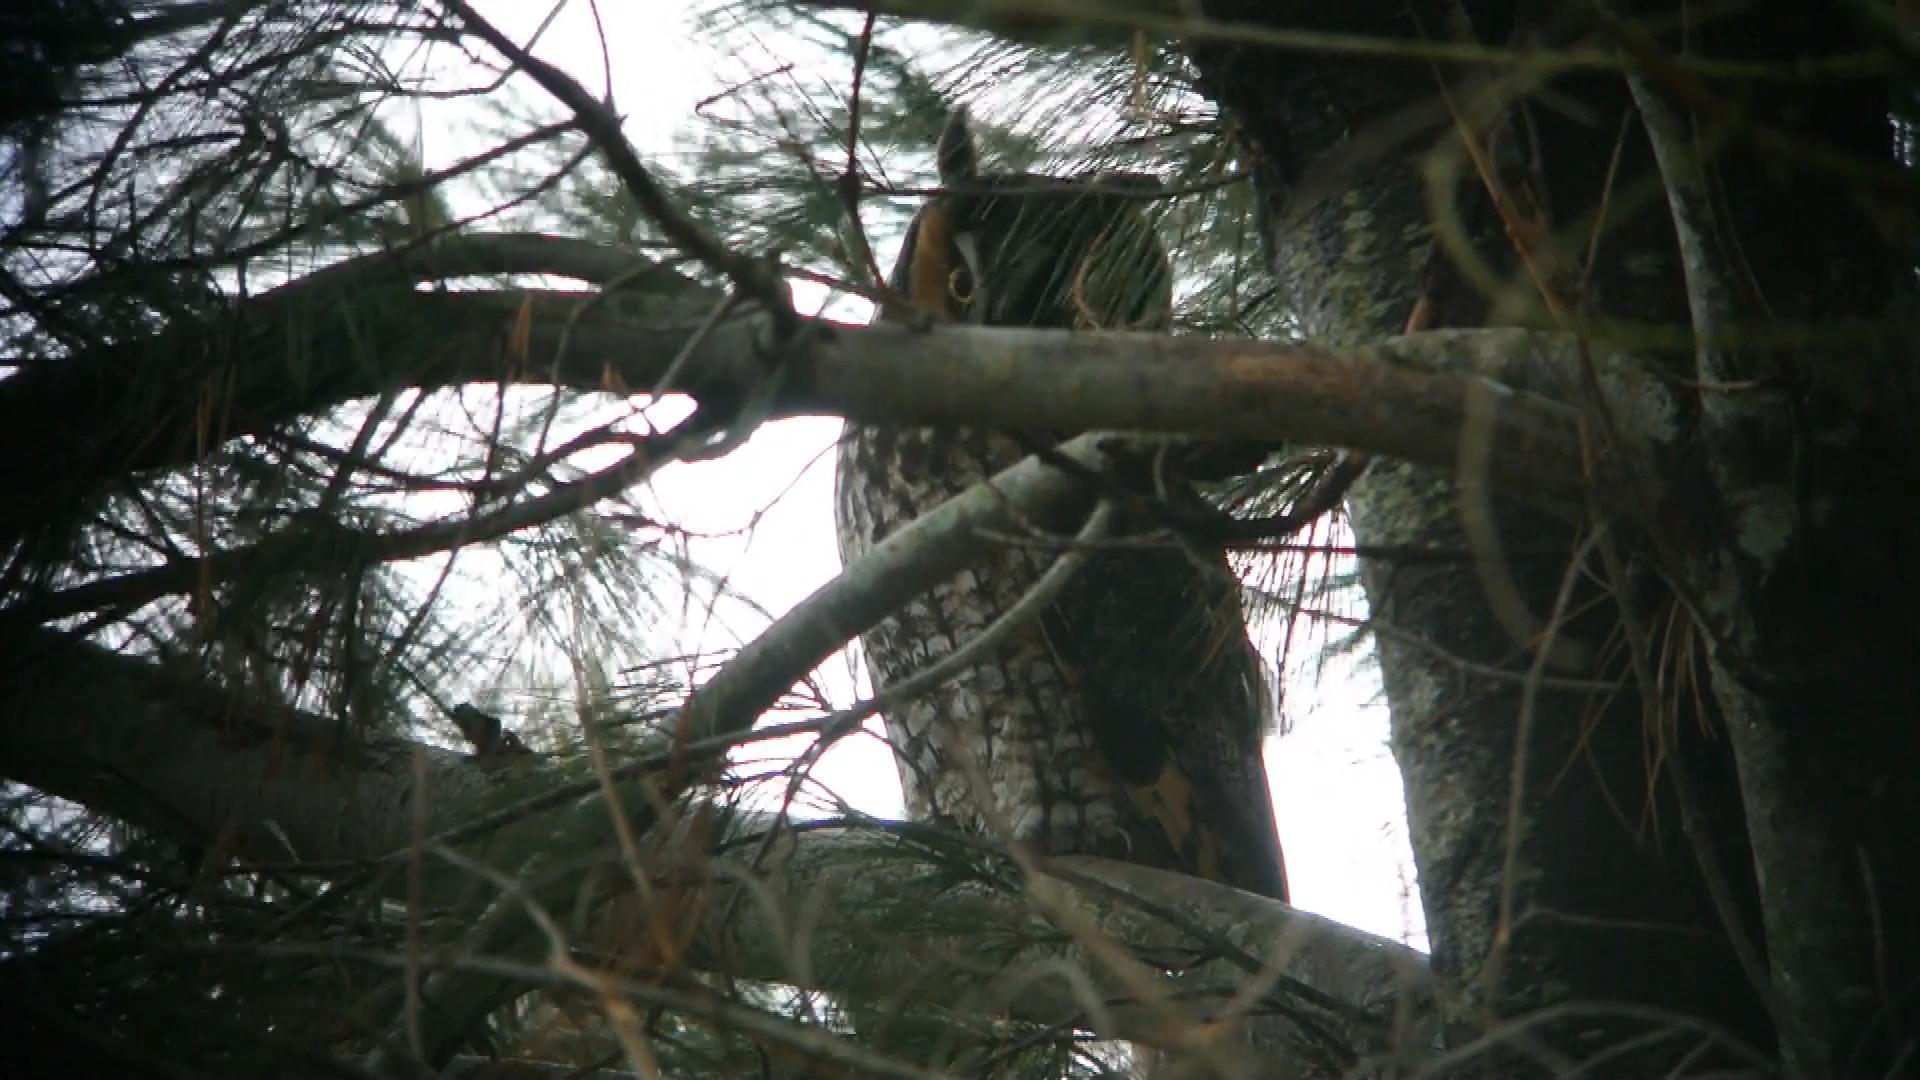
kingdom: Animalia
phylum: Chordata
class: Aves
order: Strigiformes
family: Strigidae
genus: Asio
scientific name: Asio otus
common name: Long-eared owl
